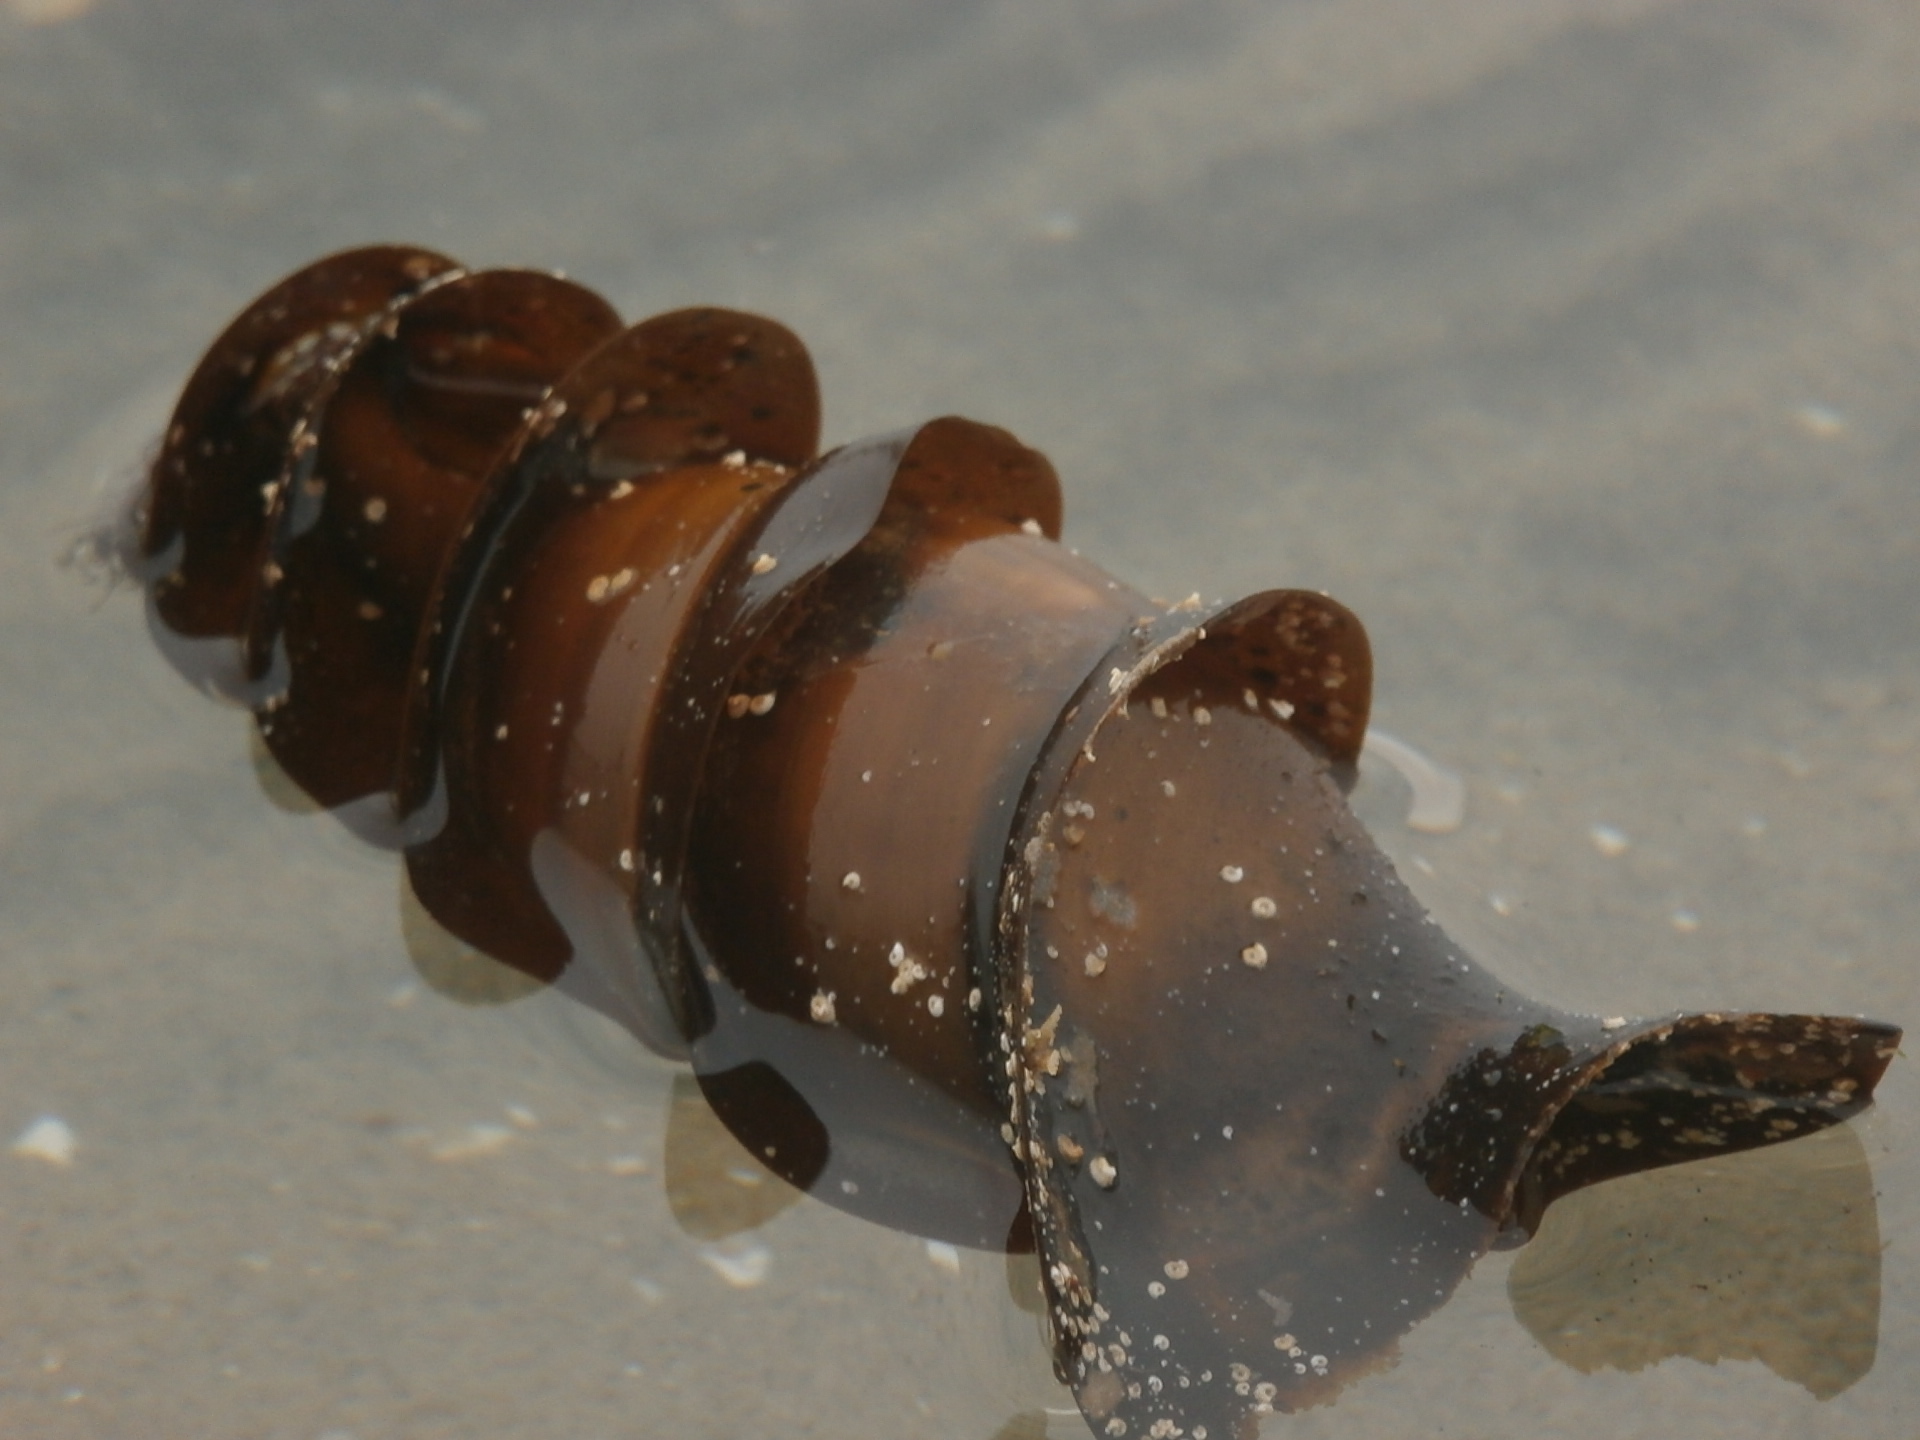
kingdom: Animalia
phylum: Chordata
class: Elasmobranchii
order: Heterodontiformes
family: Heterodontidae
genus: Heterodontus
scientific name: Heterodontus francisci
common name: Horn shark
